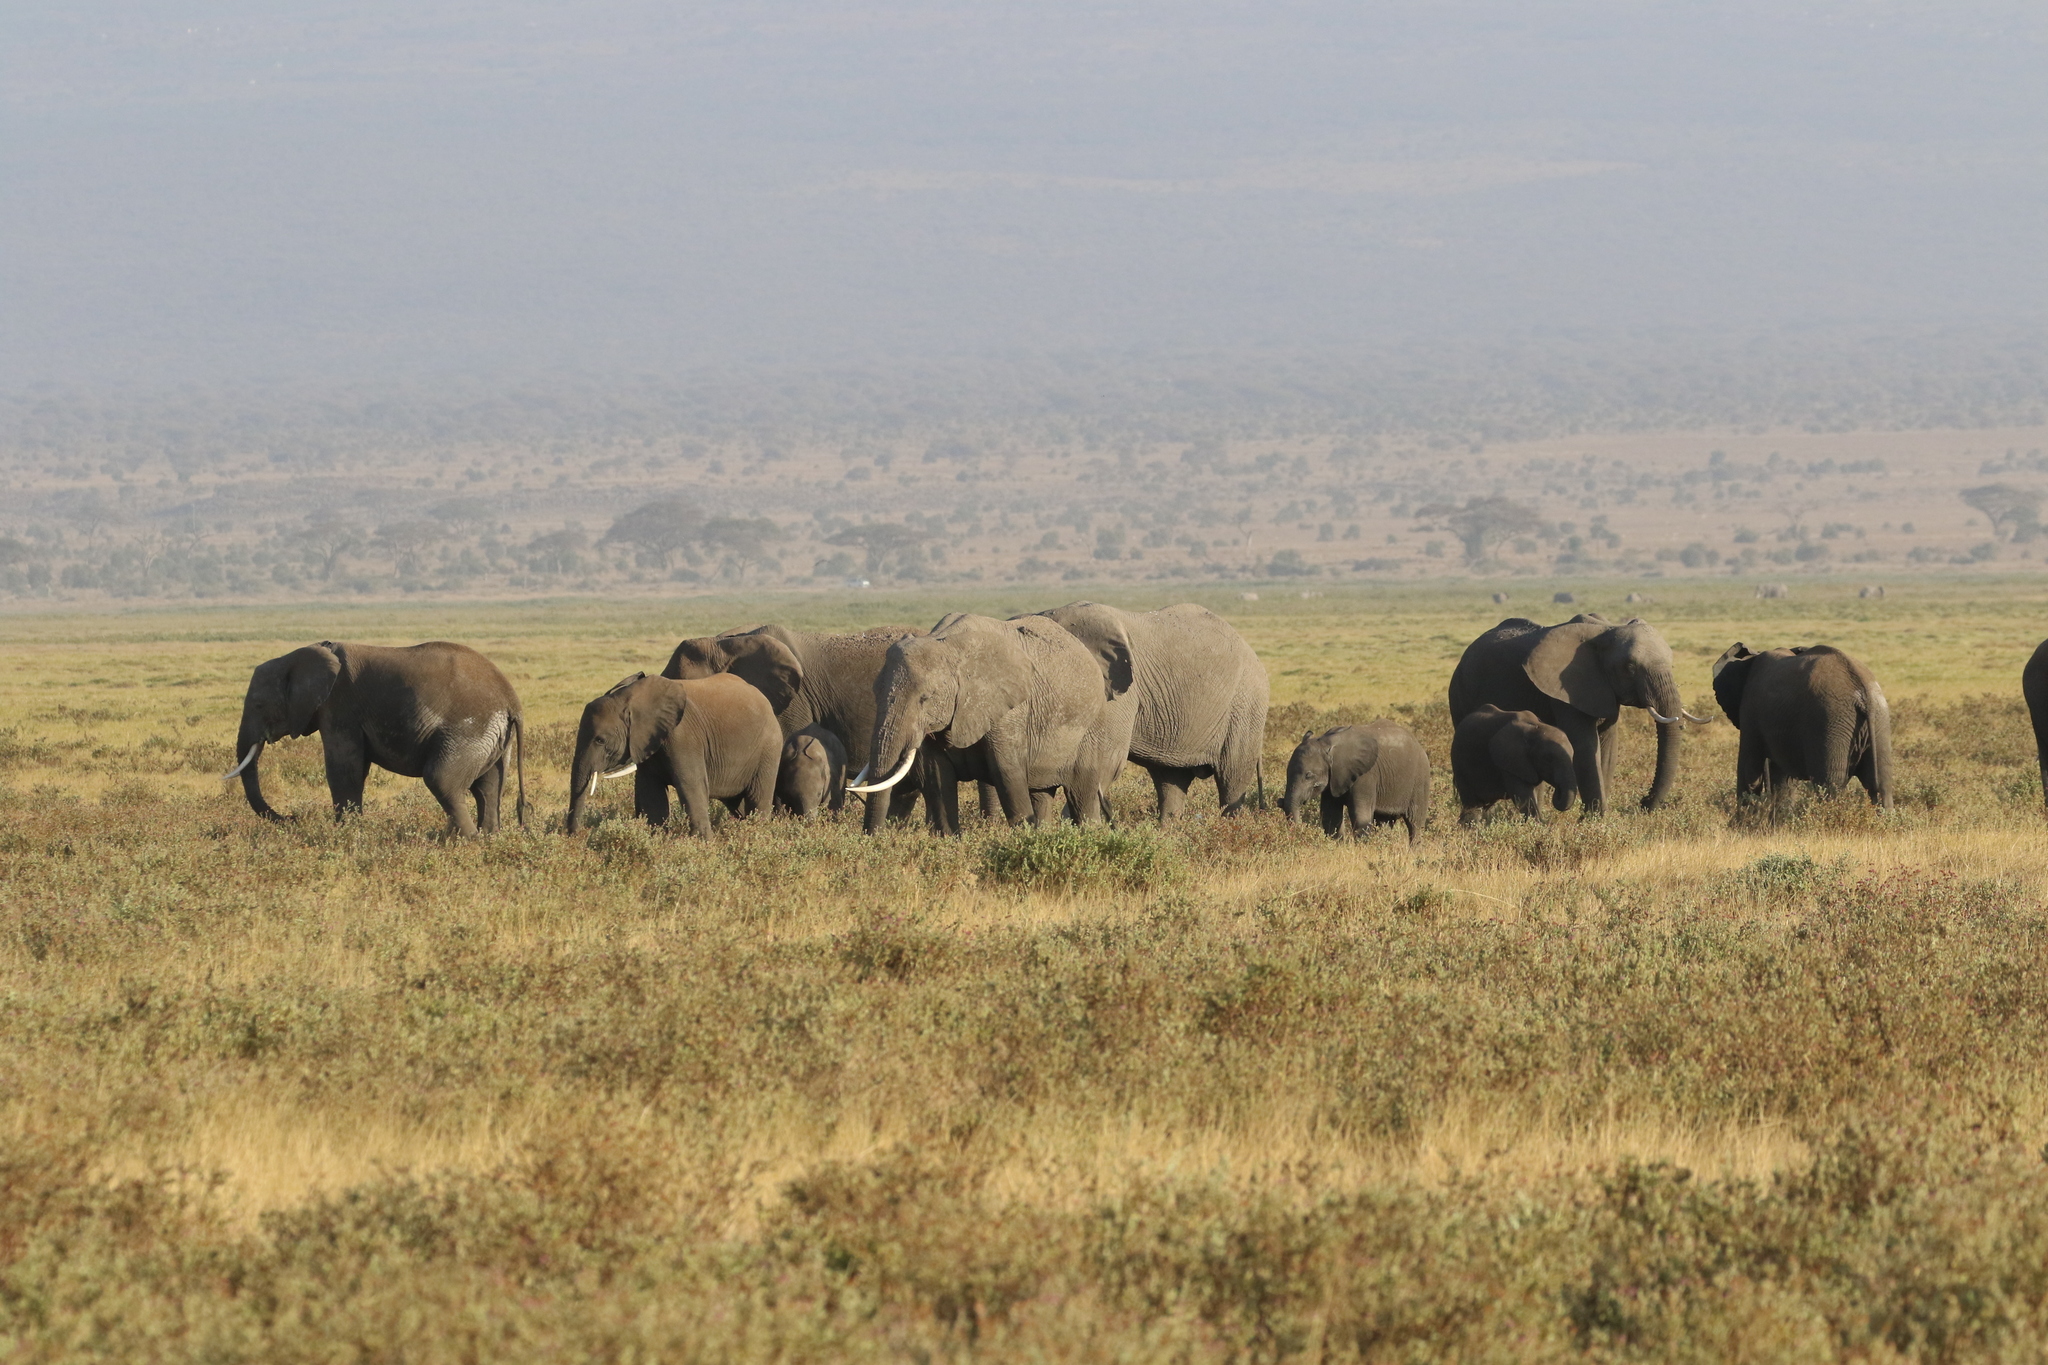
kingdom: Animalia
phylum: Chordata
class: Mammalia
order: Proboscidea
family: Elephantidae
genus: Loxodonta
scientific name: Loxodonta africana
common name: African elephant
